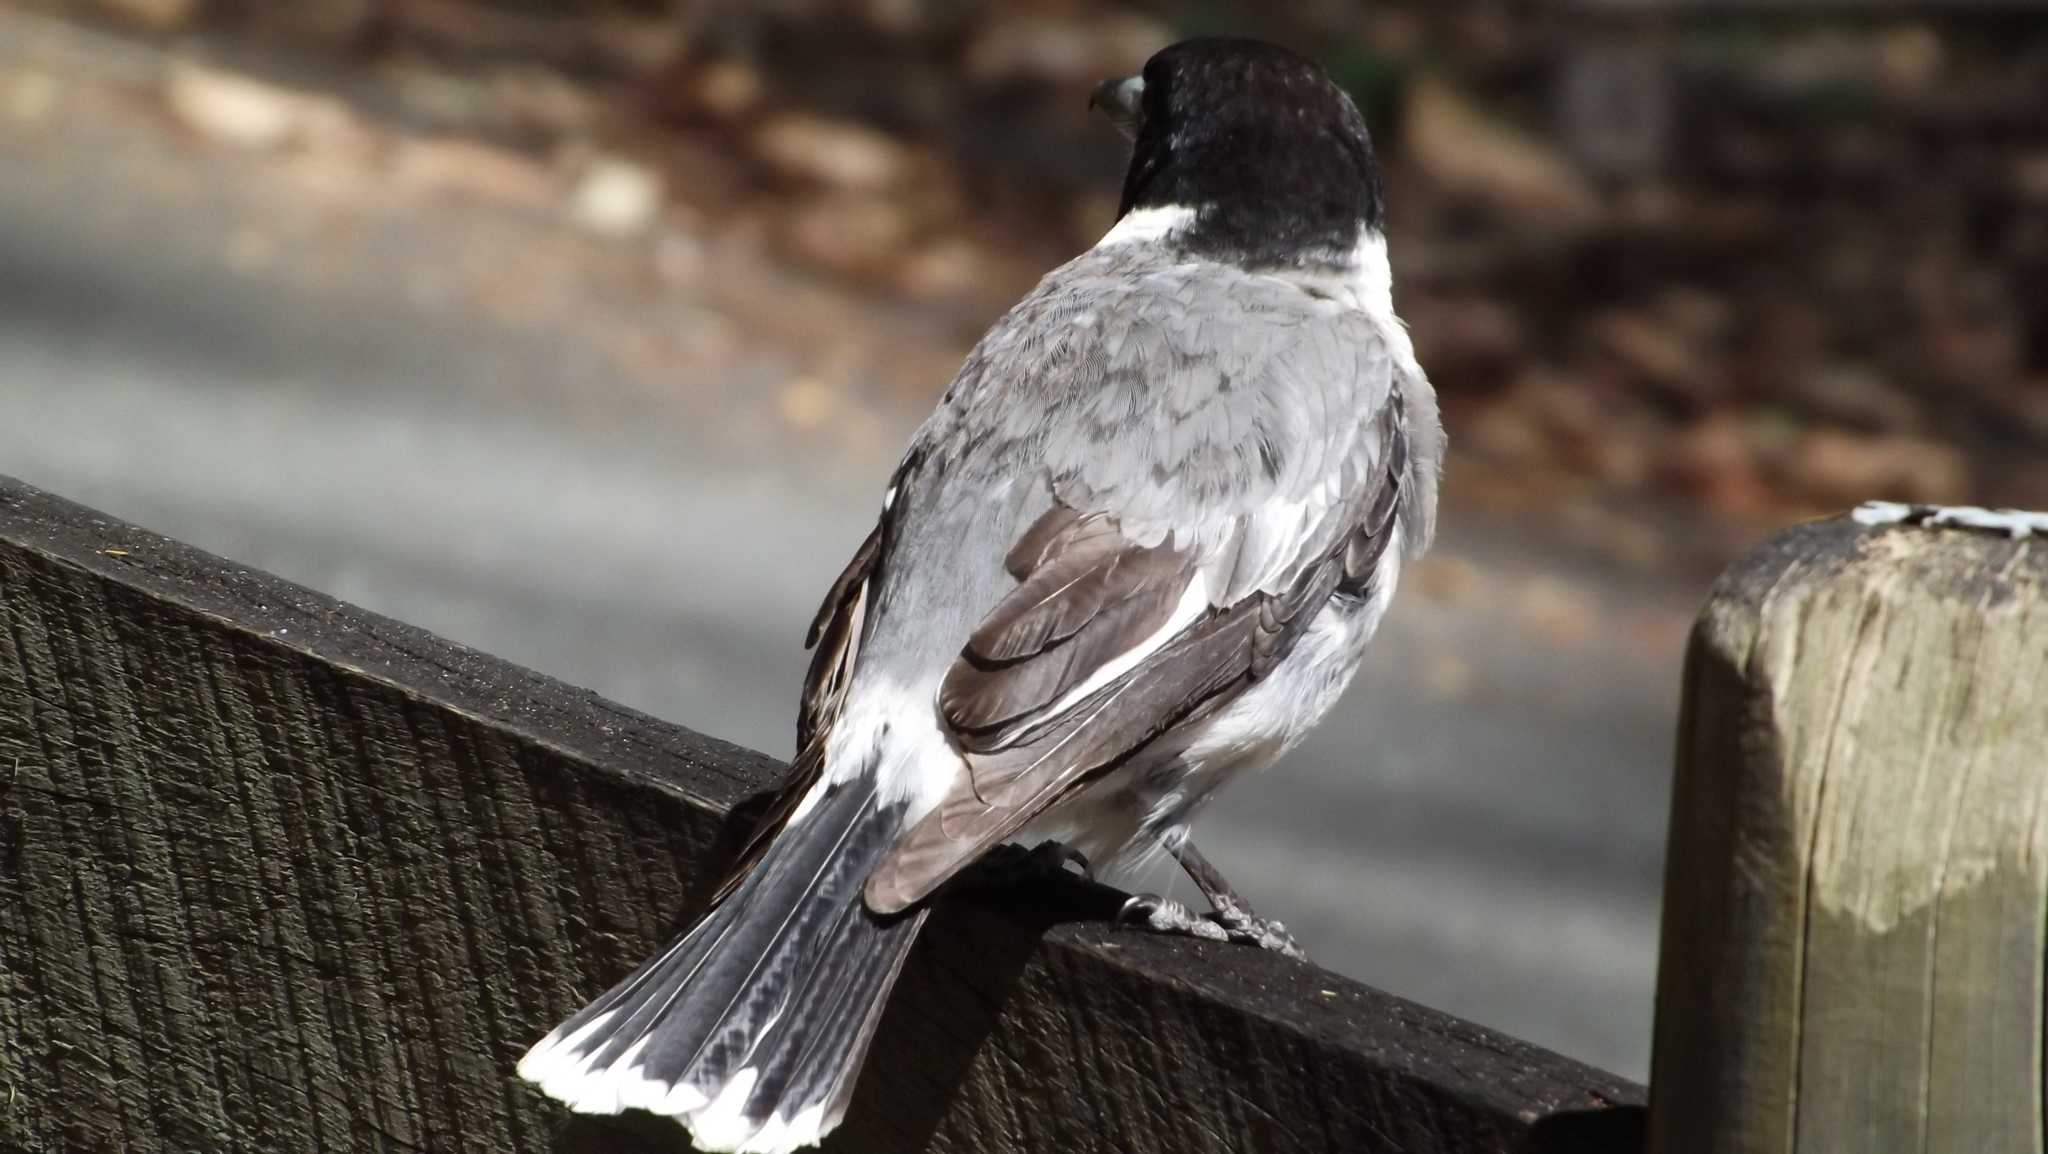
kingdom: Animalia
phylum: Chordata
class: Aves
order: Passeriformes
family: Cracticidae
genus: Cracticus
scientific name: Cracticus torquatus
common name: Grey butcherbird
